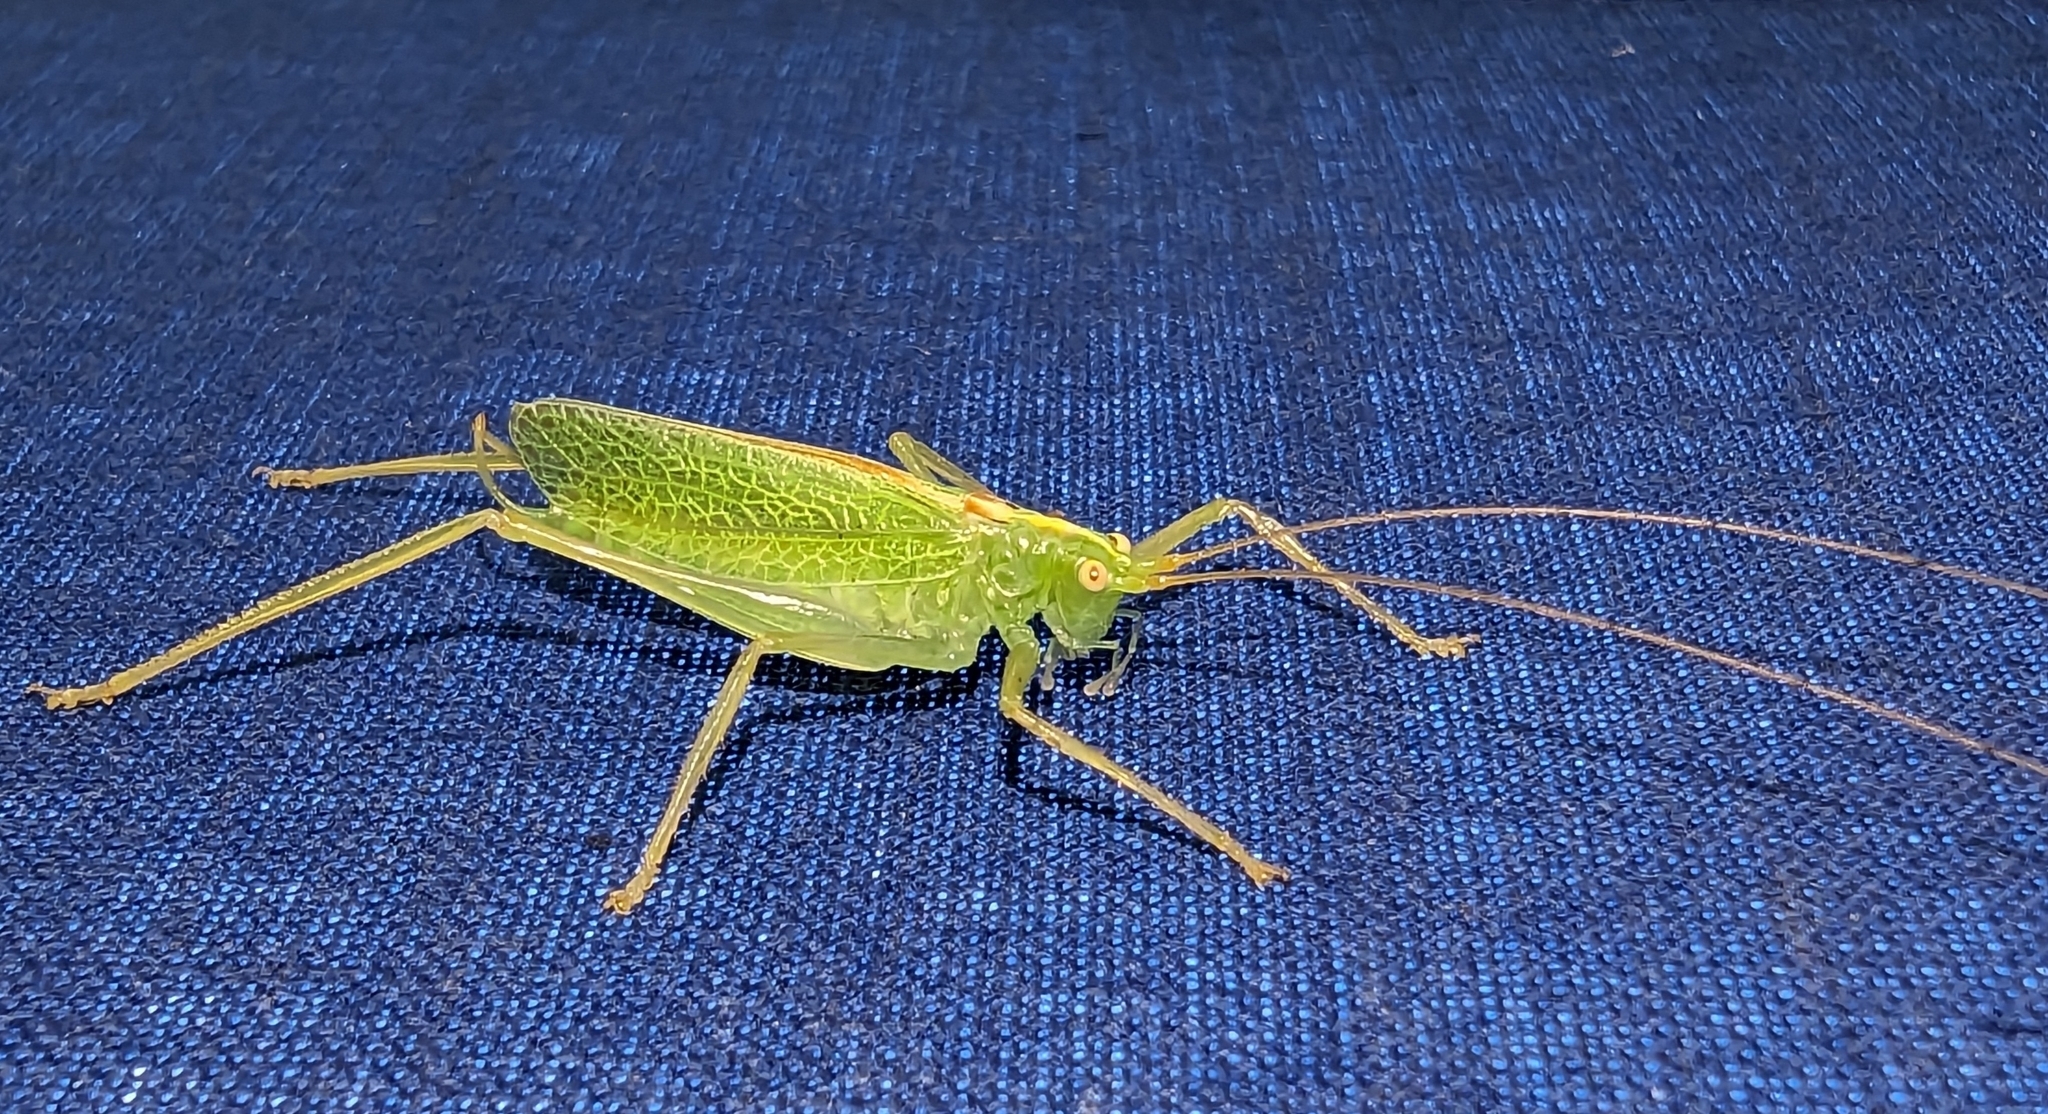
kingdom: Animalia
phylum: Arthropoda
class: Insecta
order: Orthoptera
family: Tettigoniidae
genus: Meconema
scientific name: Meconema thalassinum
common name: Oak bush-cricket
